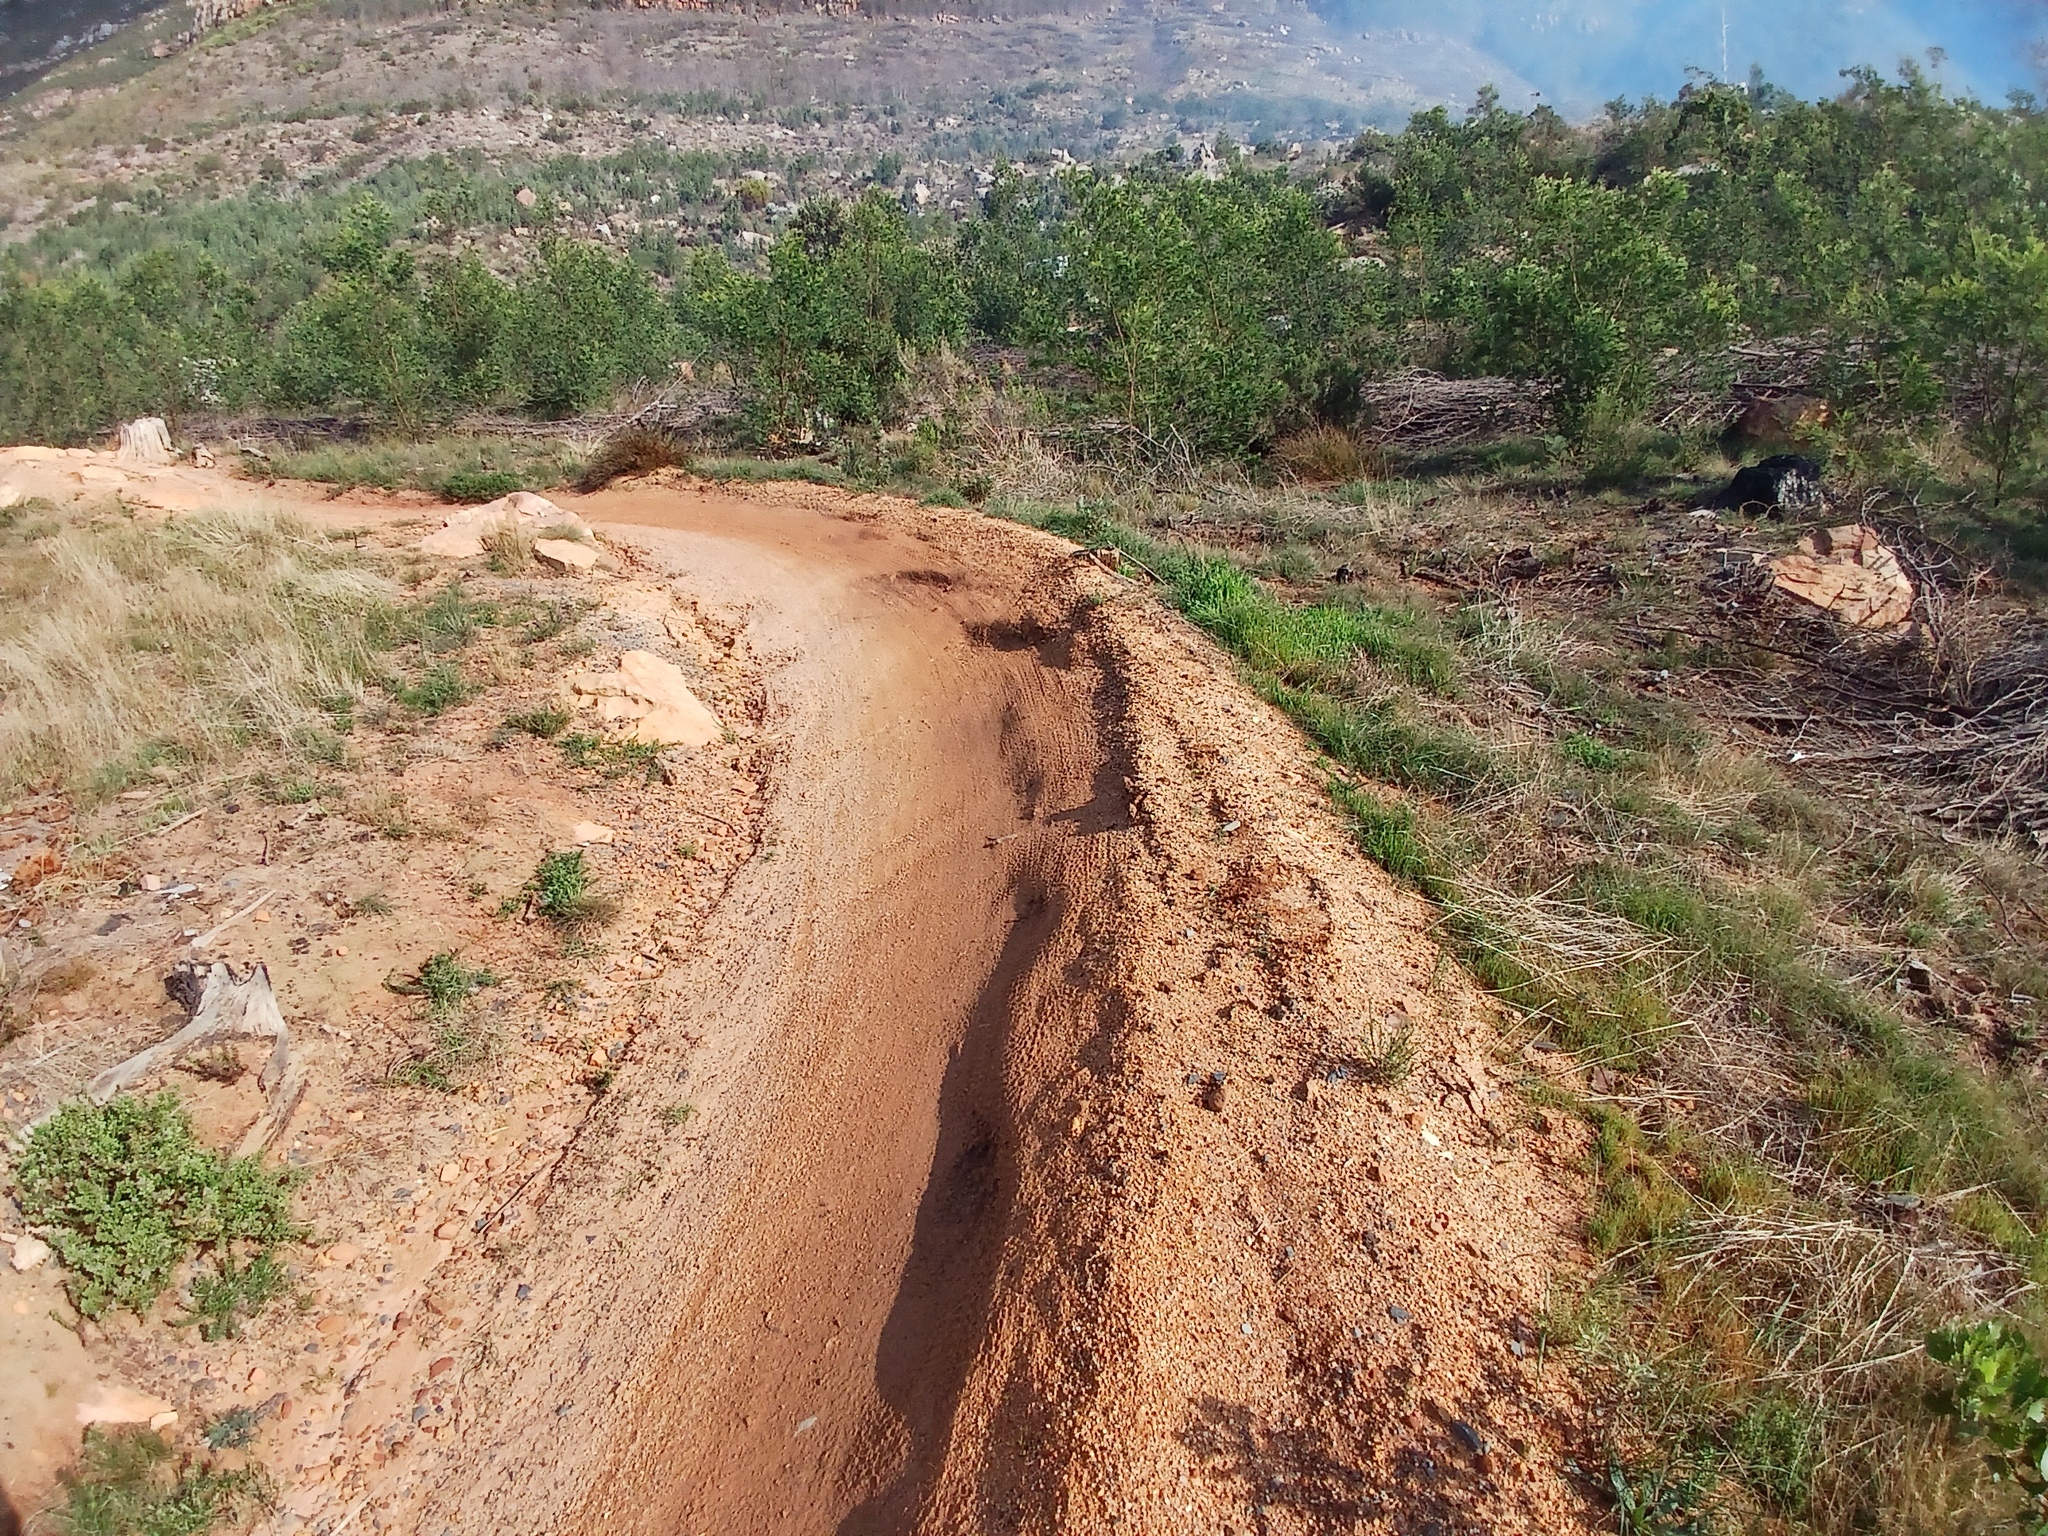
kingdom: Plantae
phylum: Tracheophyta
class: Magnoliopsida
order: Fabales
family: Fabaceae
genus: Acacia
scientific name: Acacia mearnsii
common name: Black wattle
